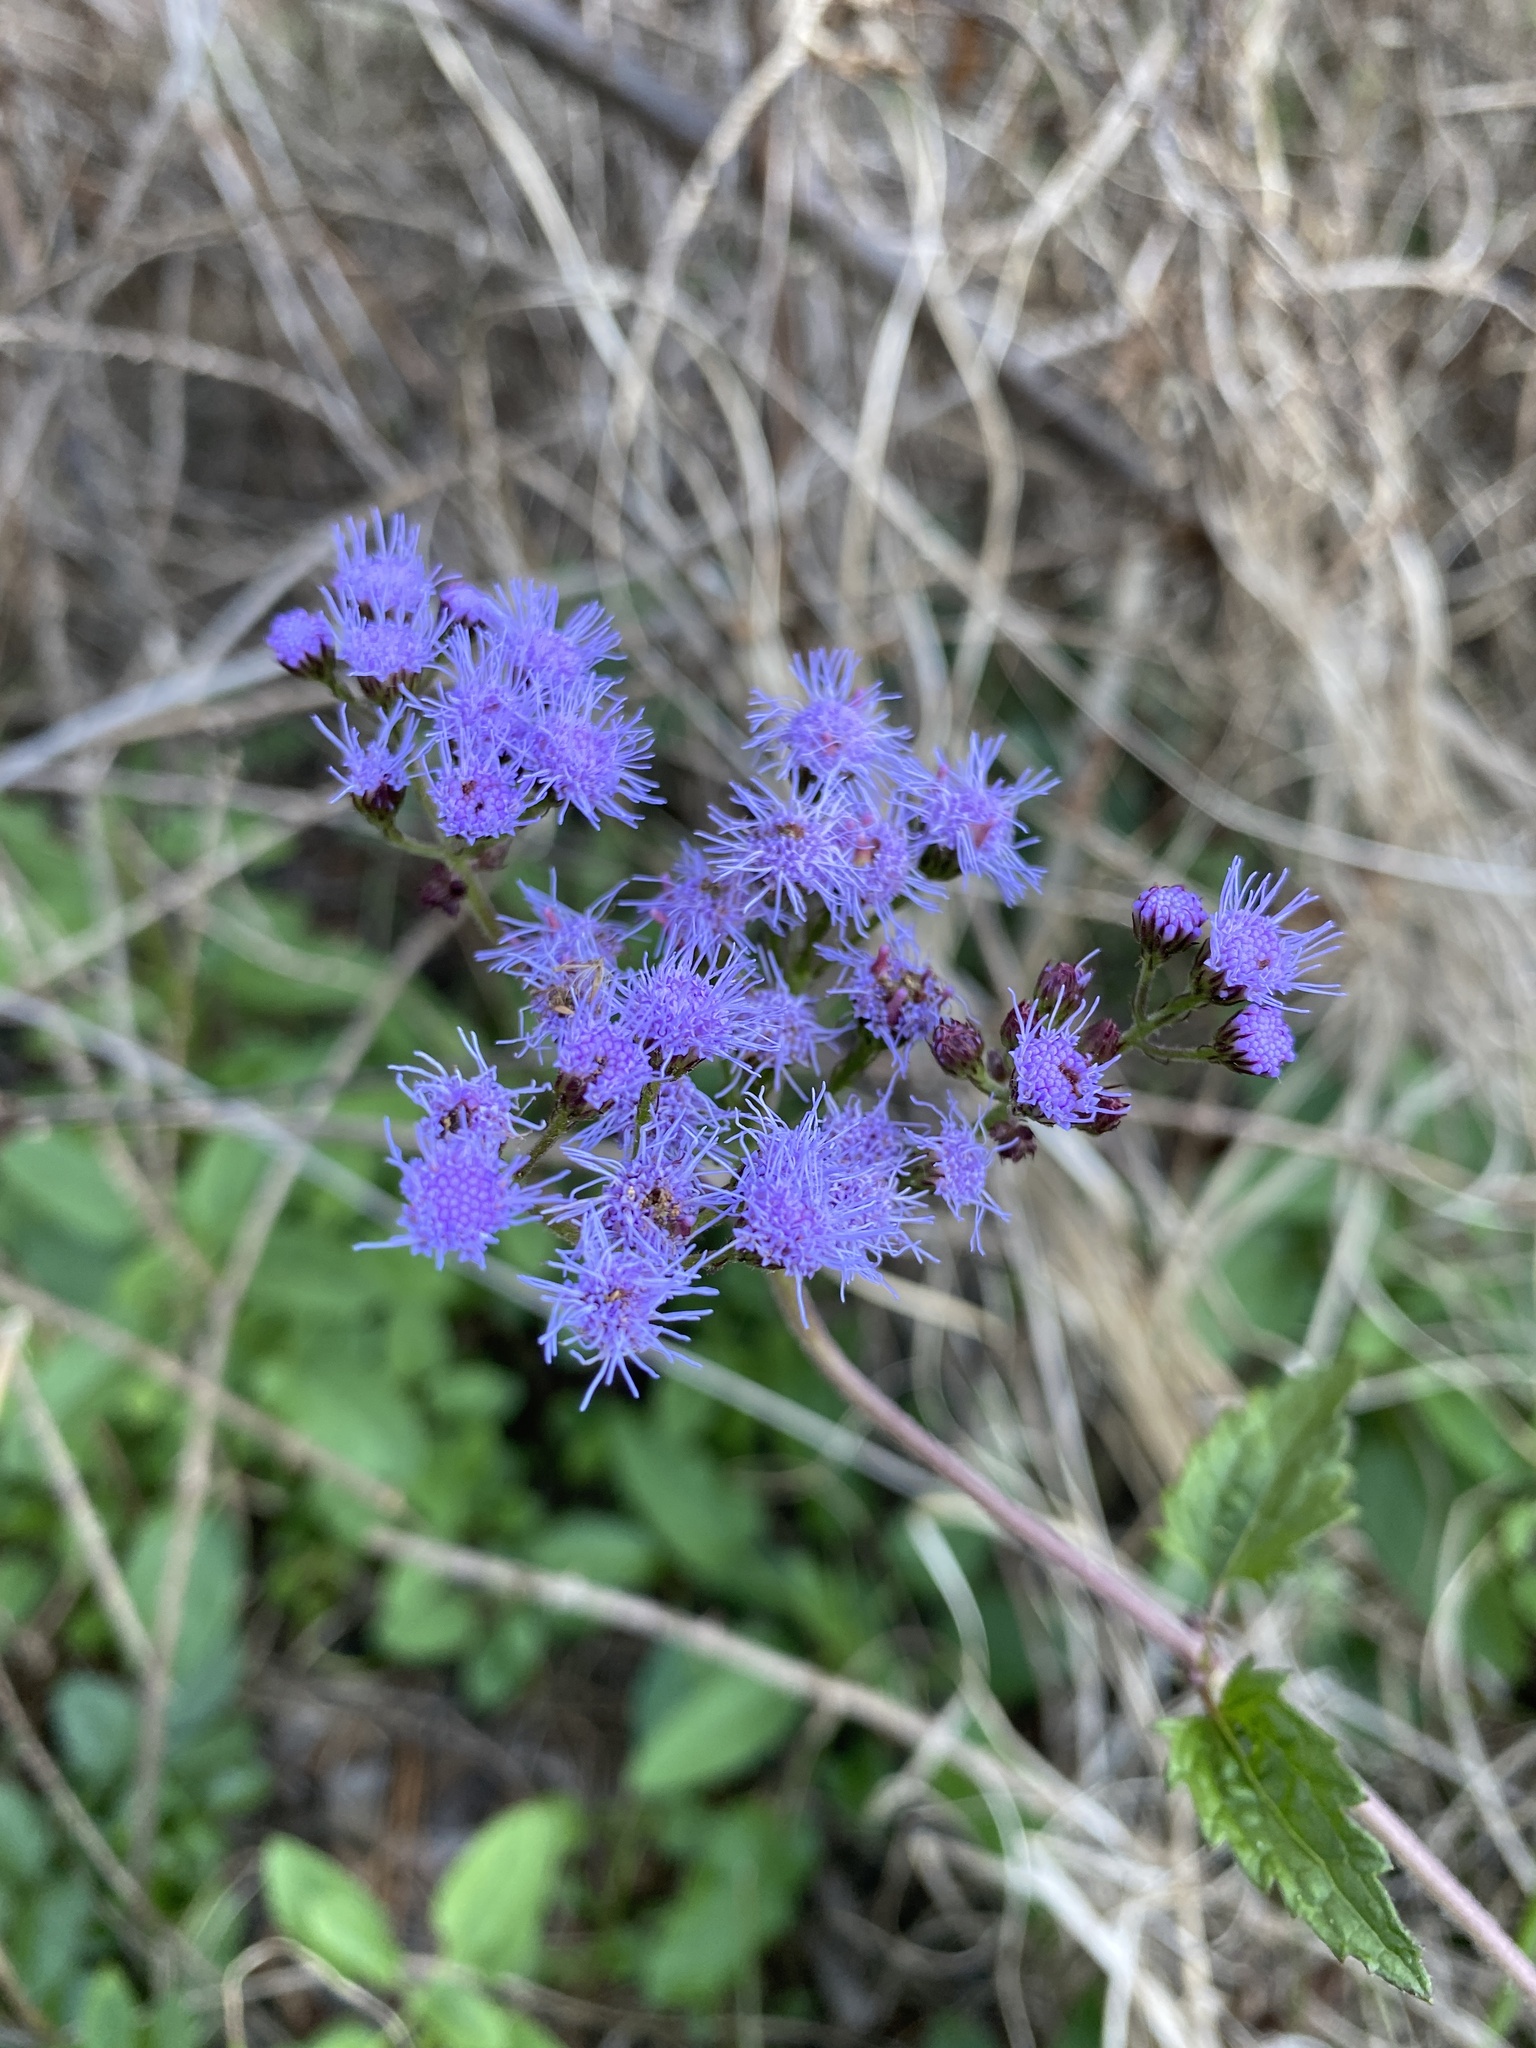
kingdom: Plantae
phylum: Tracheophyta
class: Magnoliopsida
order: Asterales
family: Asteraceae
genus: Conoclinium
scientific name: Conoclinium coelestinum
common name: Blue mistflower
